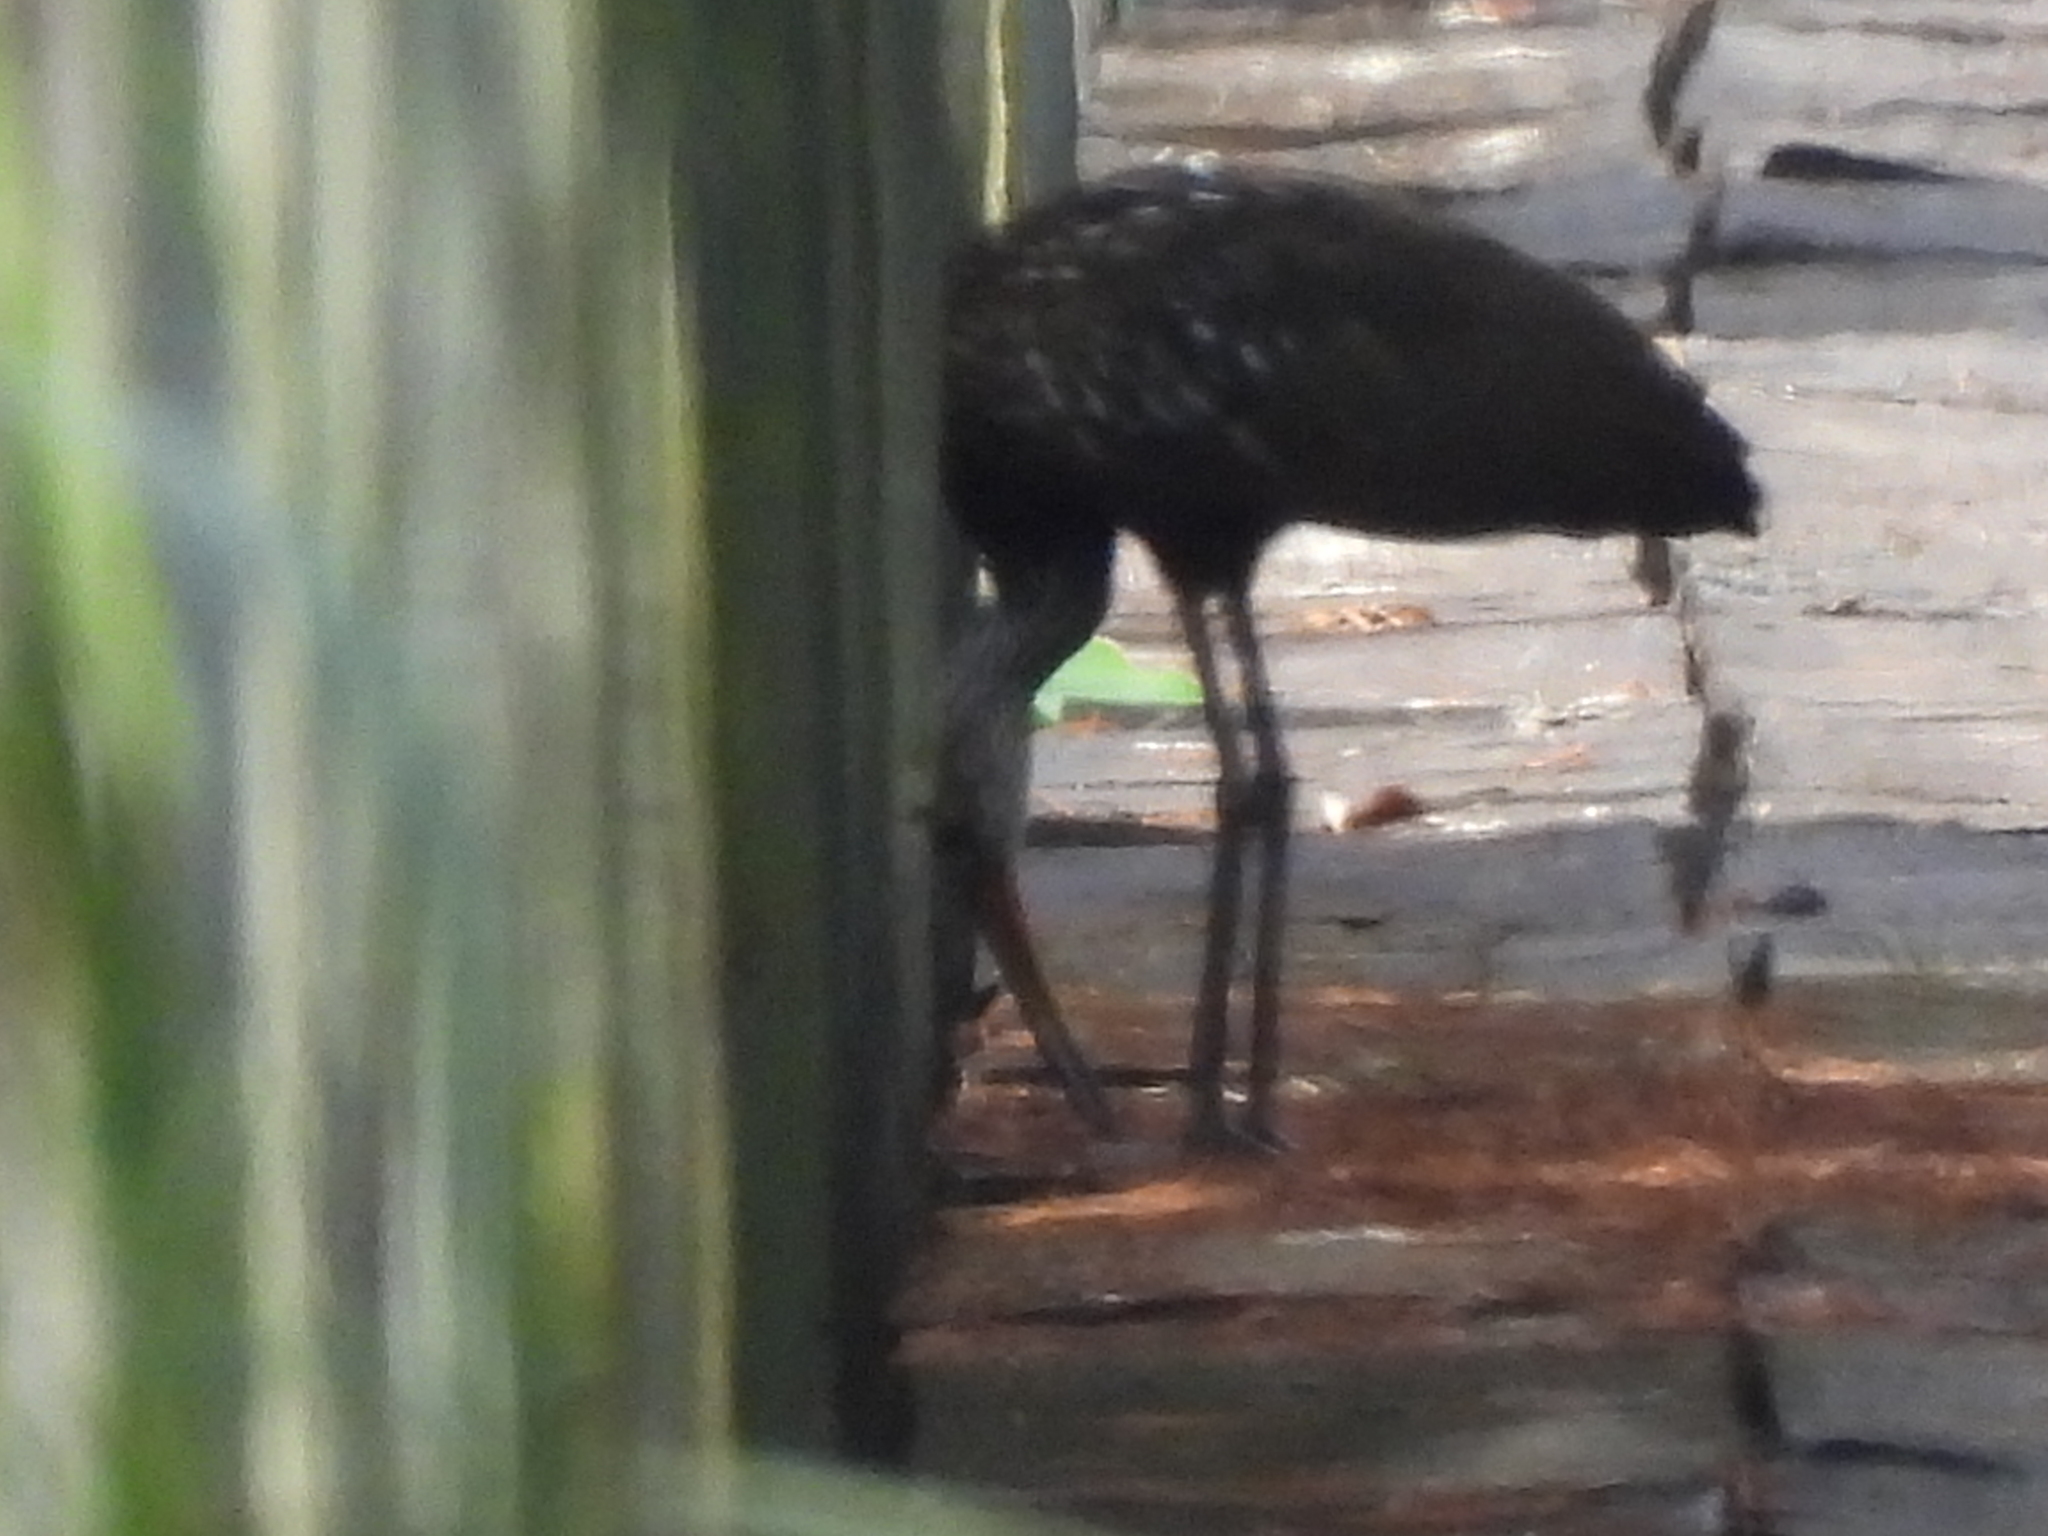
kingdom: Animalia
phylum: Chordata
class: Aves
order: Gruiformes
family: Aramidae
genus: Aramus
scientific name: Aramus guarauna
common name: Limpkin
